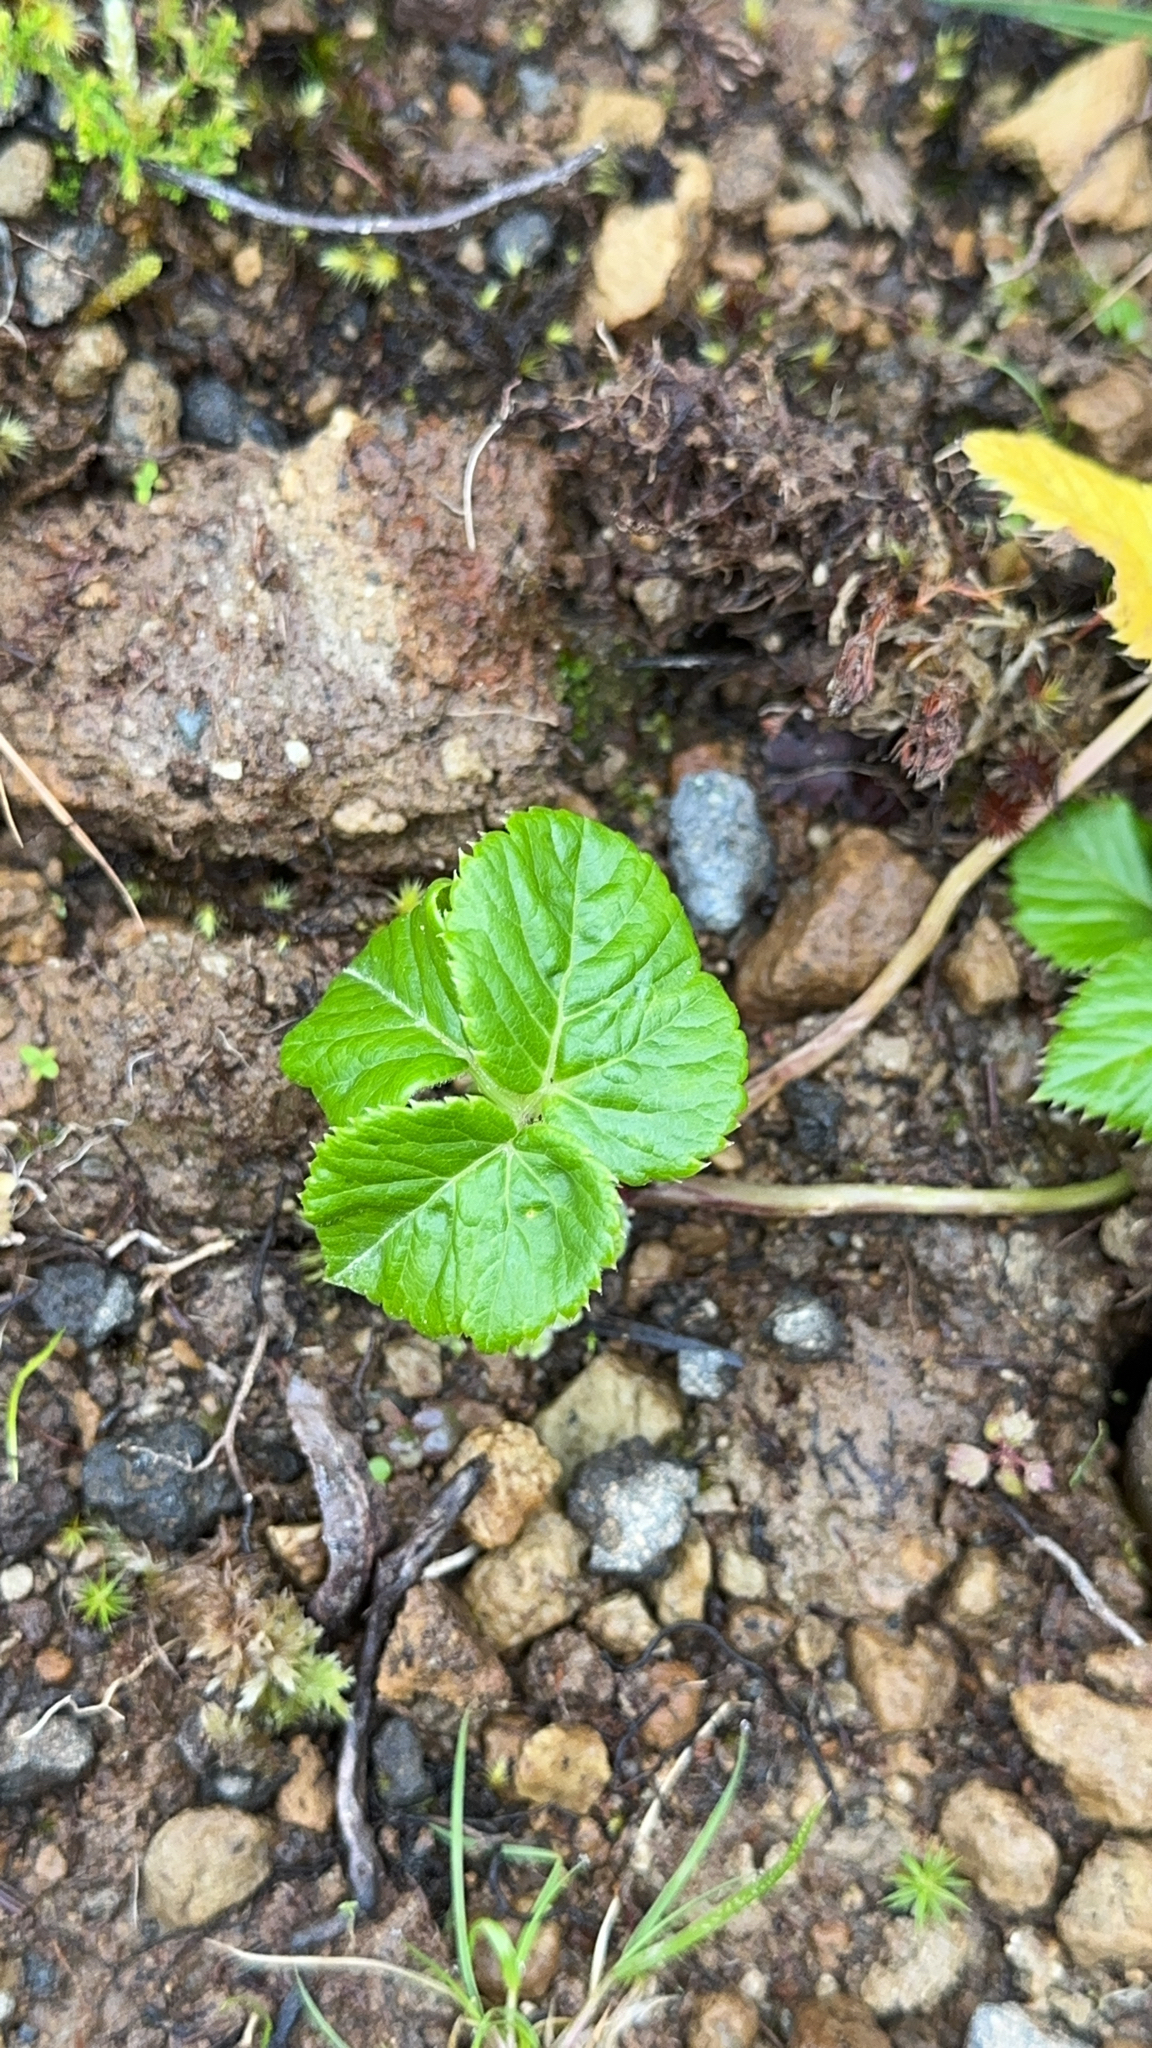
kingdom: Plantae
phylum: Tracheophyta
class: Magnoliopsida
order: Apiales
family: Apiaceae
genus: Angelica
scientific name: Angelica lignescens
